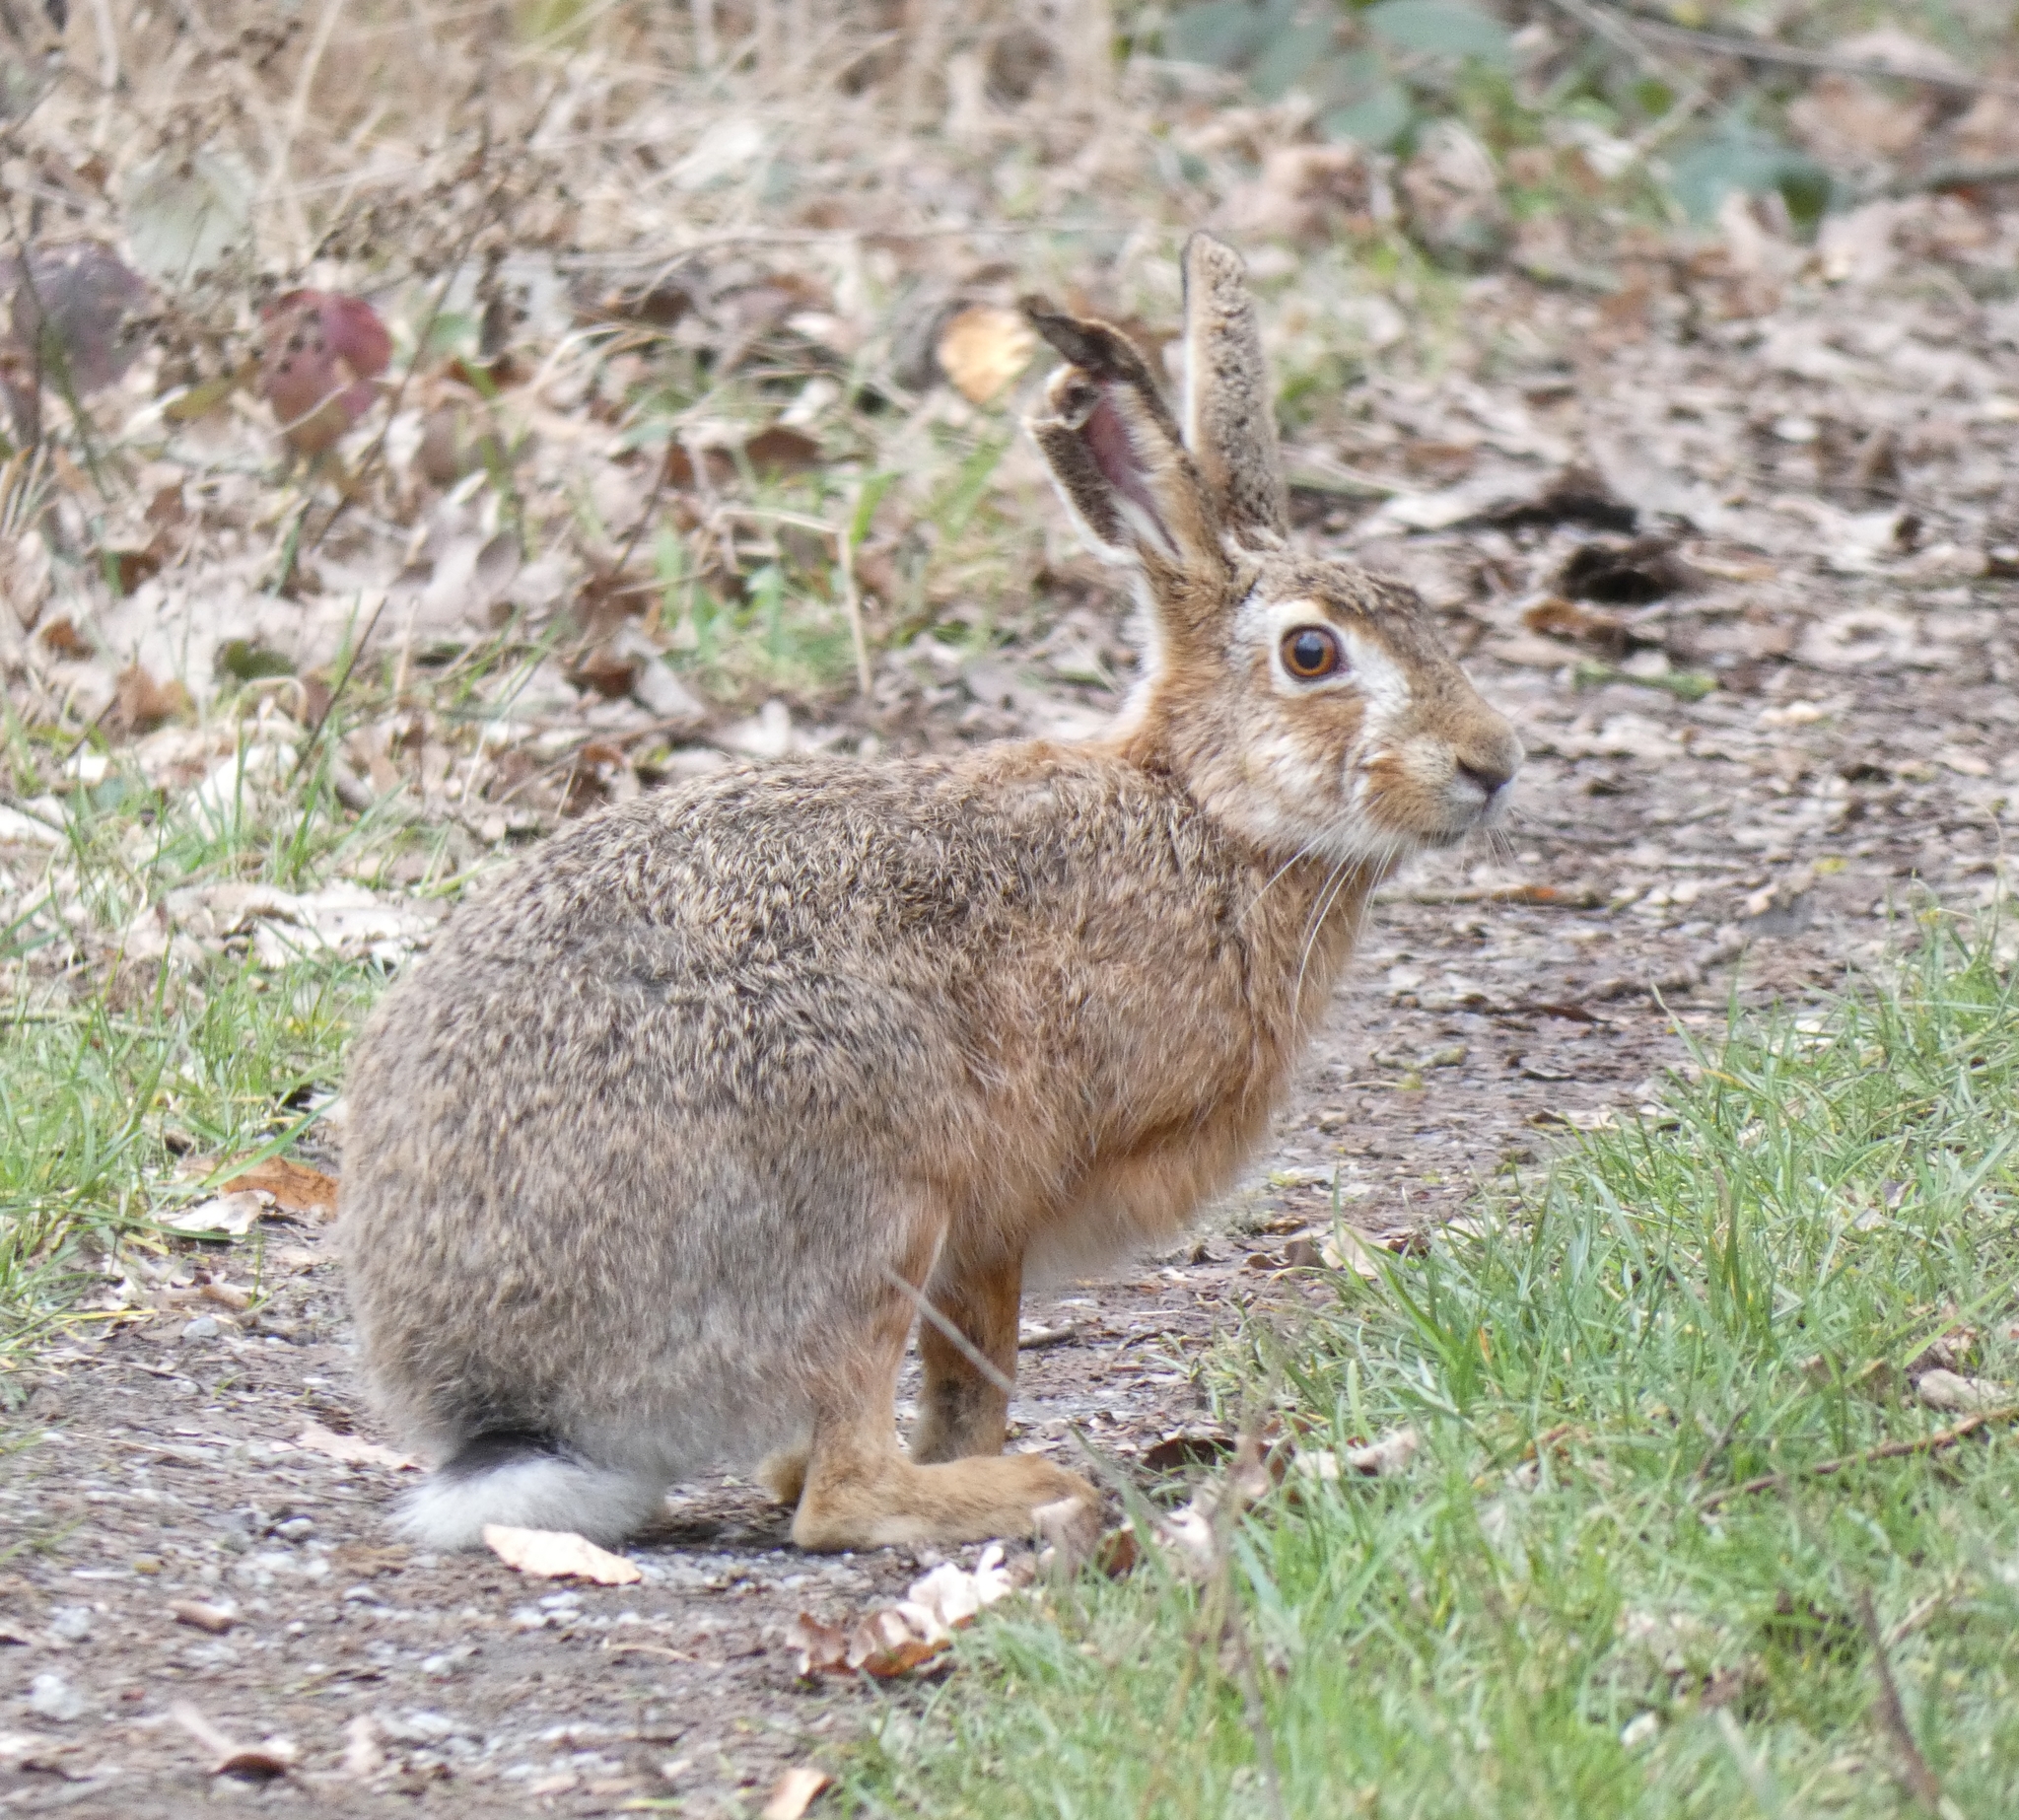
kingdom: Animalia
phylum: Chordata
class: Mammalia
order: Lagomorpha
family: Leporidae
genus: Lepus
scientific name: Lepus europaeus
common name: European hare
